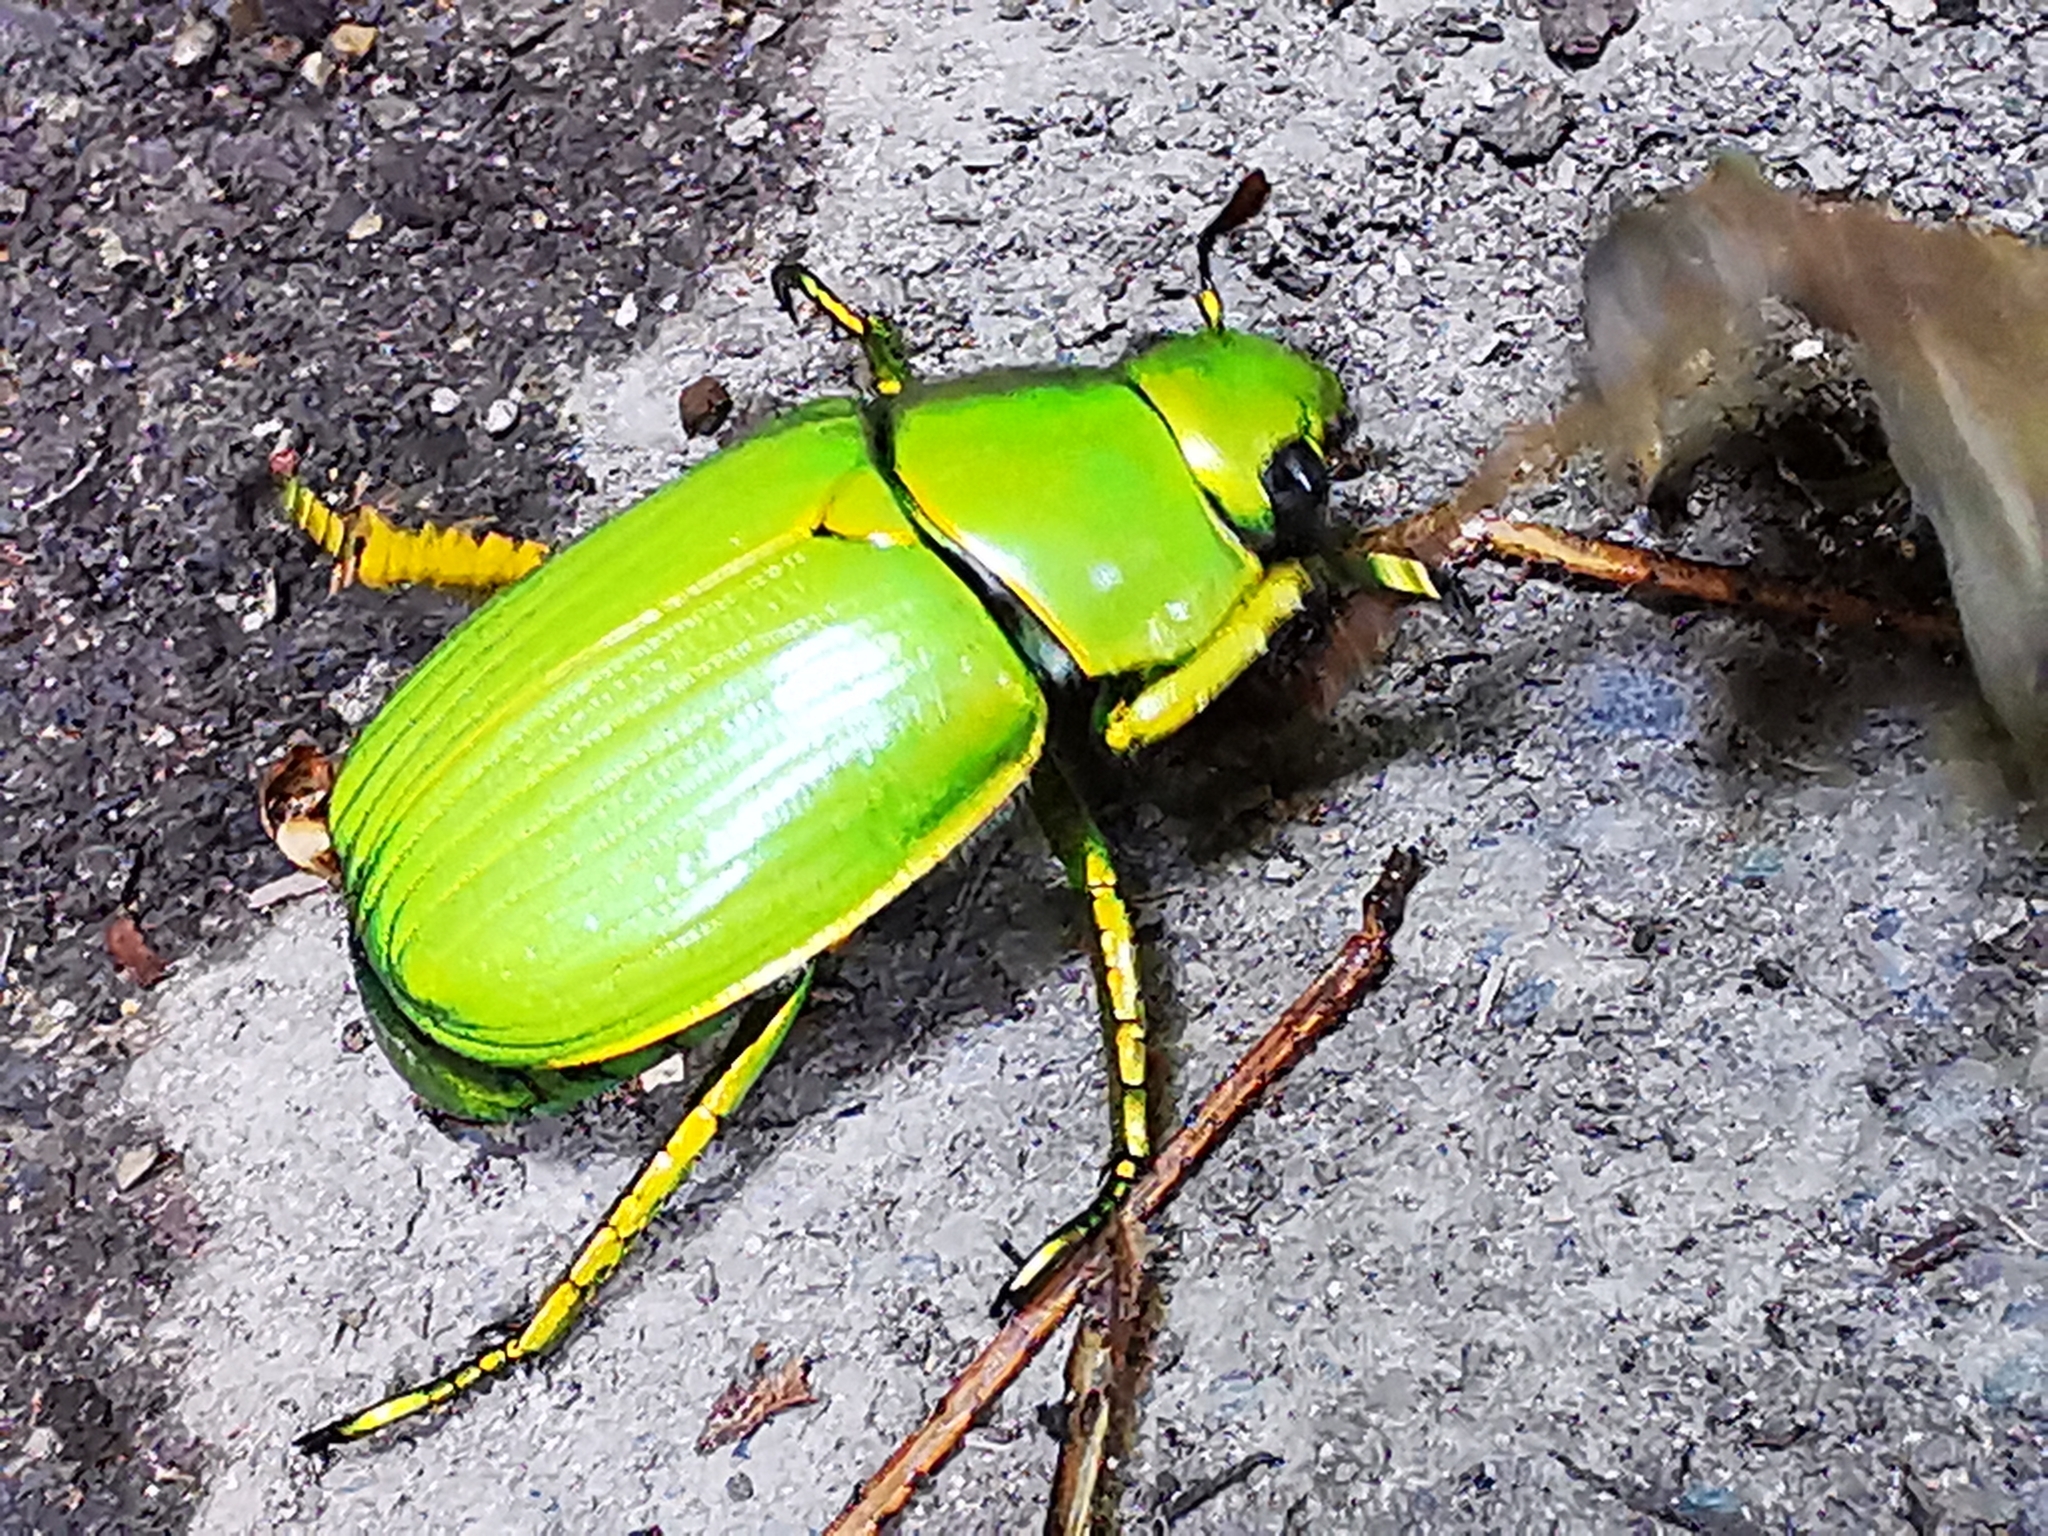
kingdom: Animalia
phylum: Arthropoda
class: Insecta
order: Coleoptera
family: Scarabaeidae
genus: Chrysina
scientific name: Chrysina psittacina
